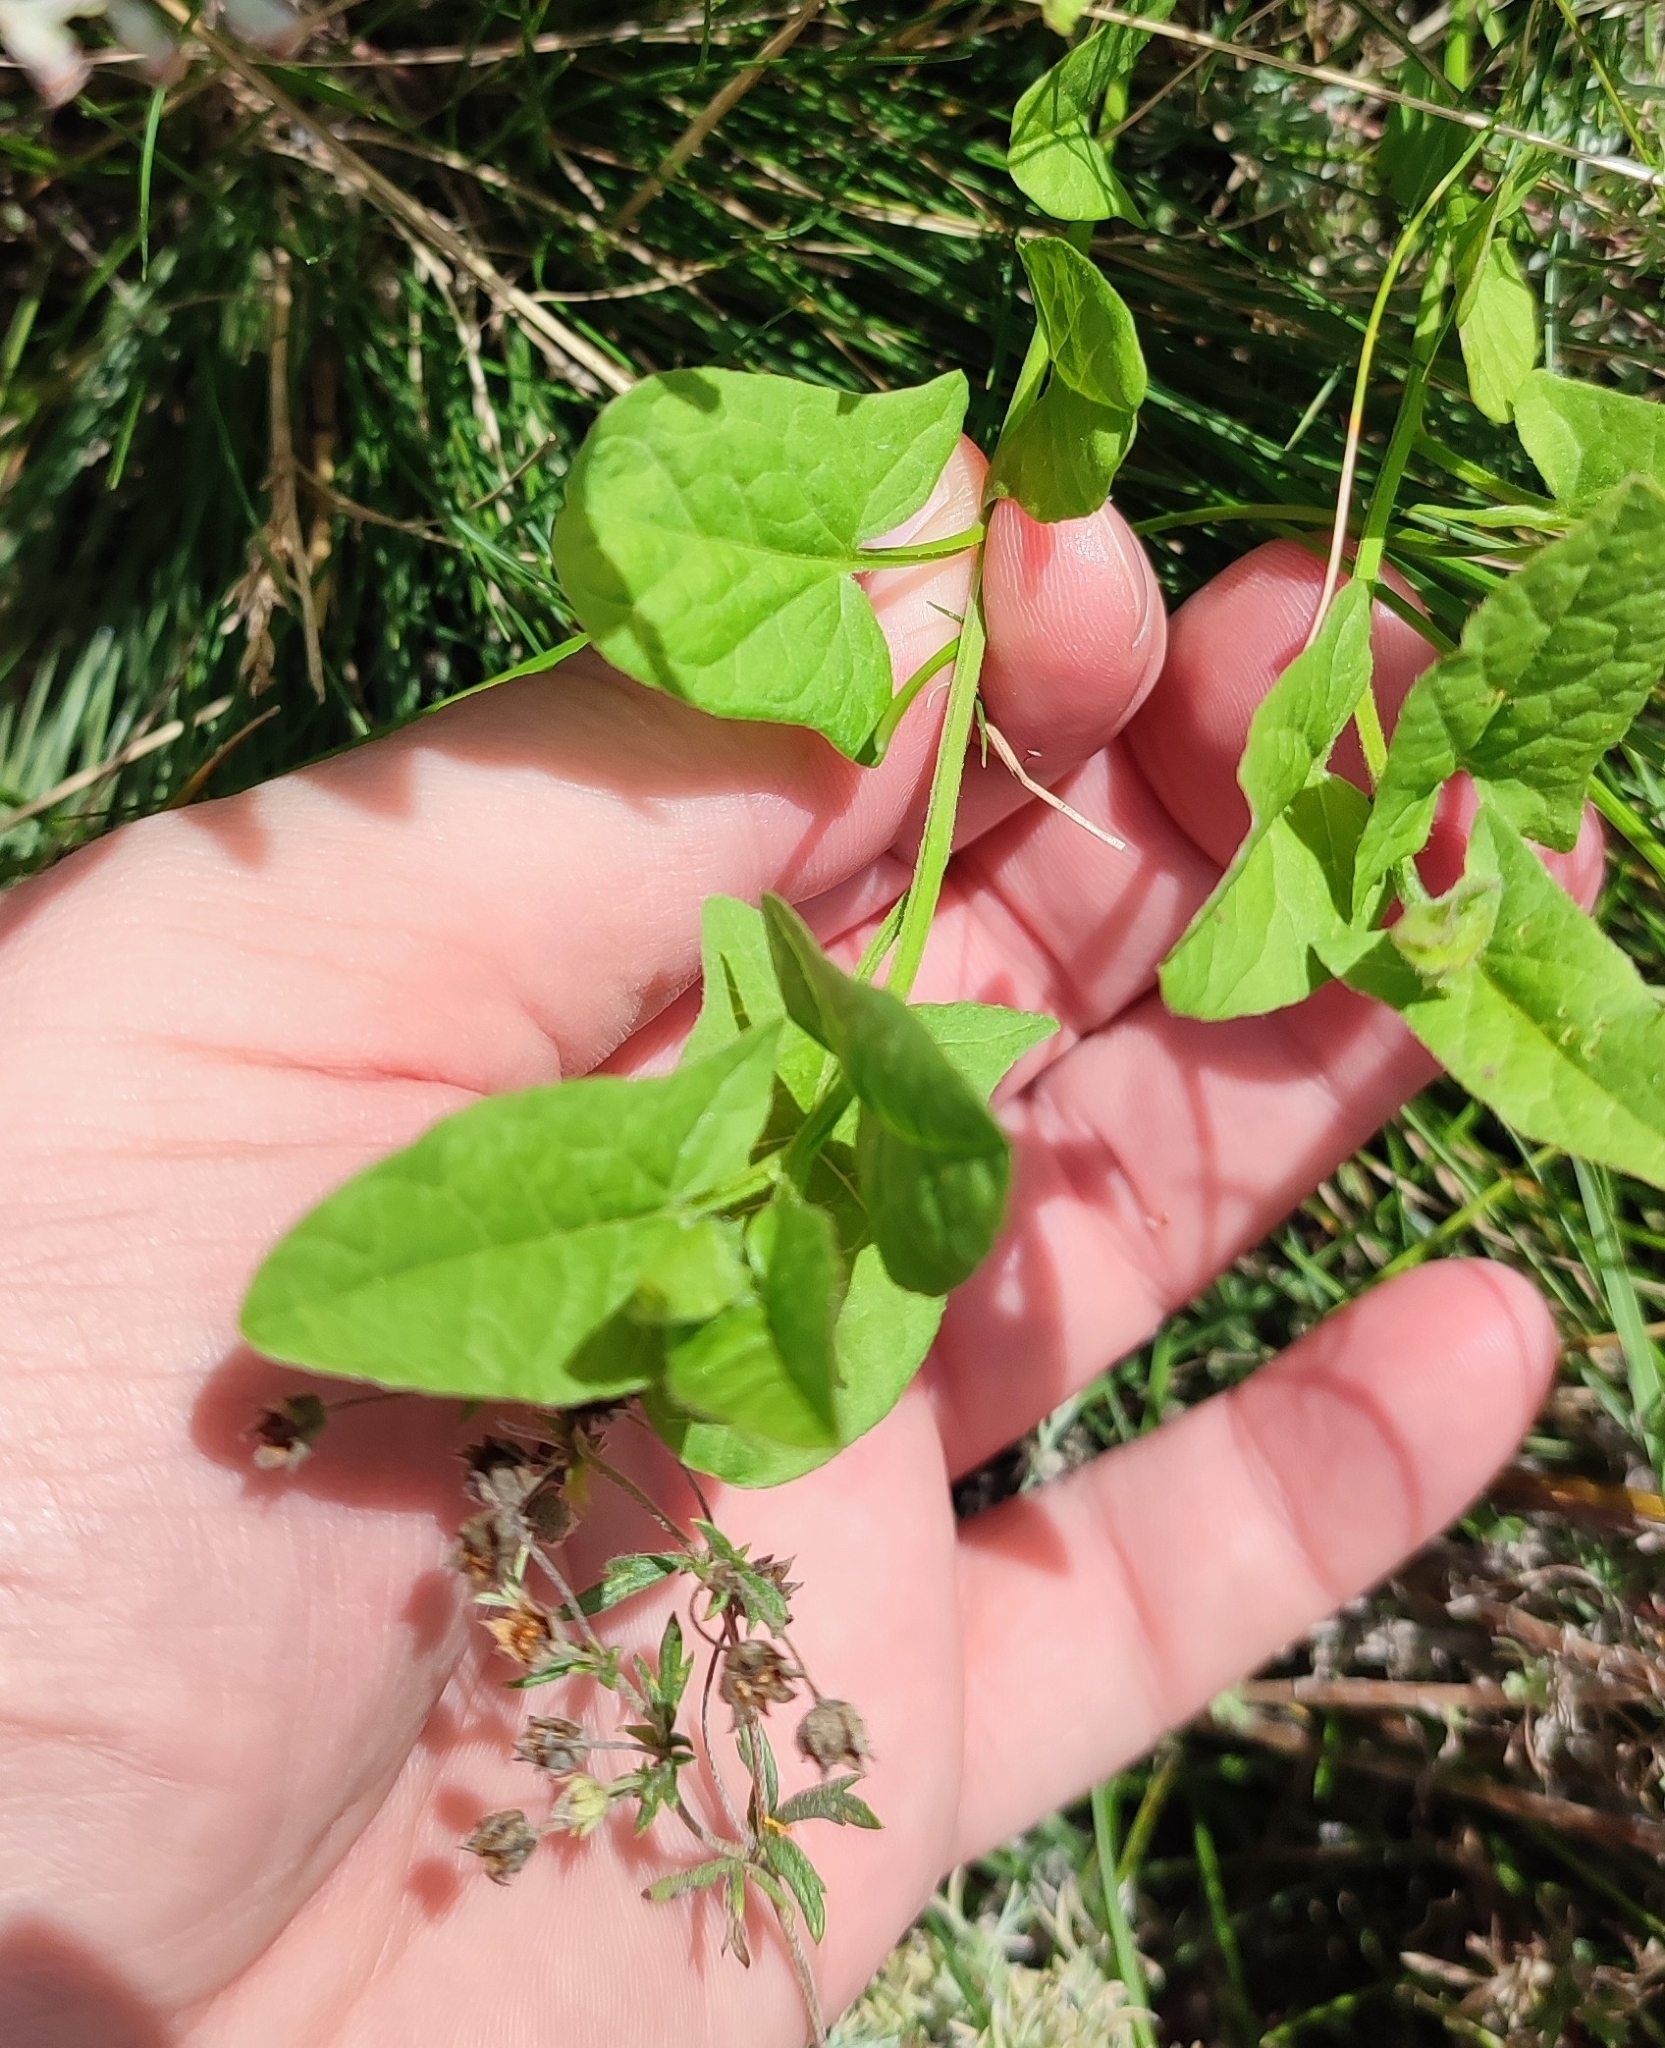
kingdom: Plantae
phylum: Tracheophyta
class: Magnoliopsida
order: Solanales
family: Convolvulaceae
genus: Convolvulus
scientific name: Convolvulus arvensis
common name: Field bindweed
